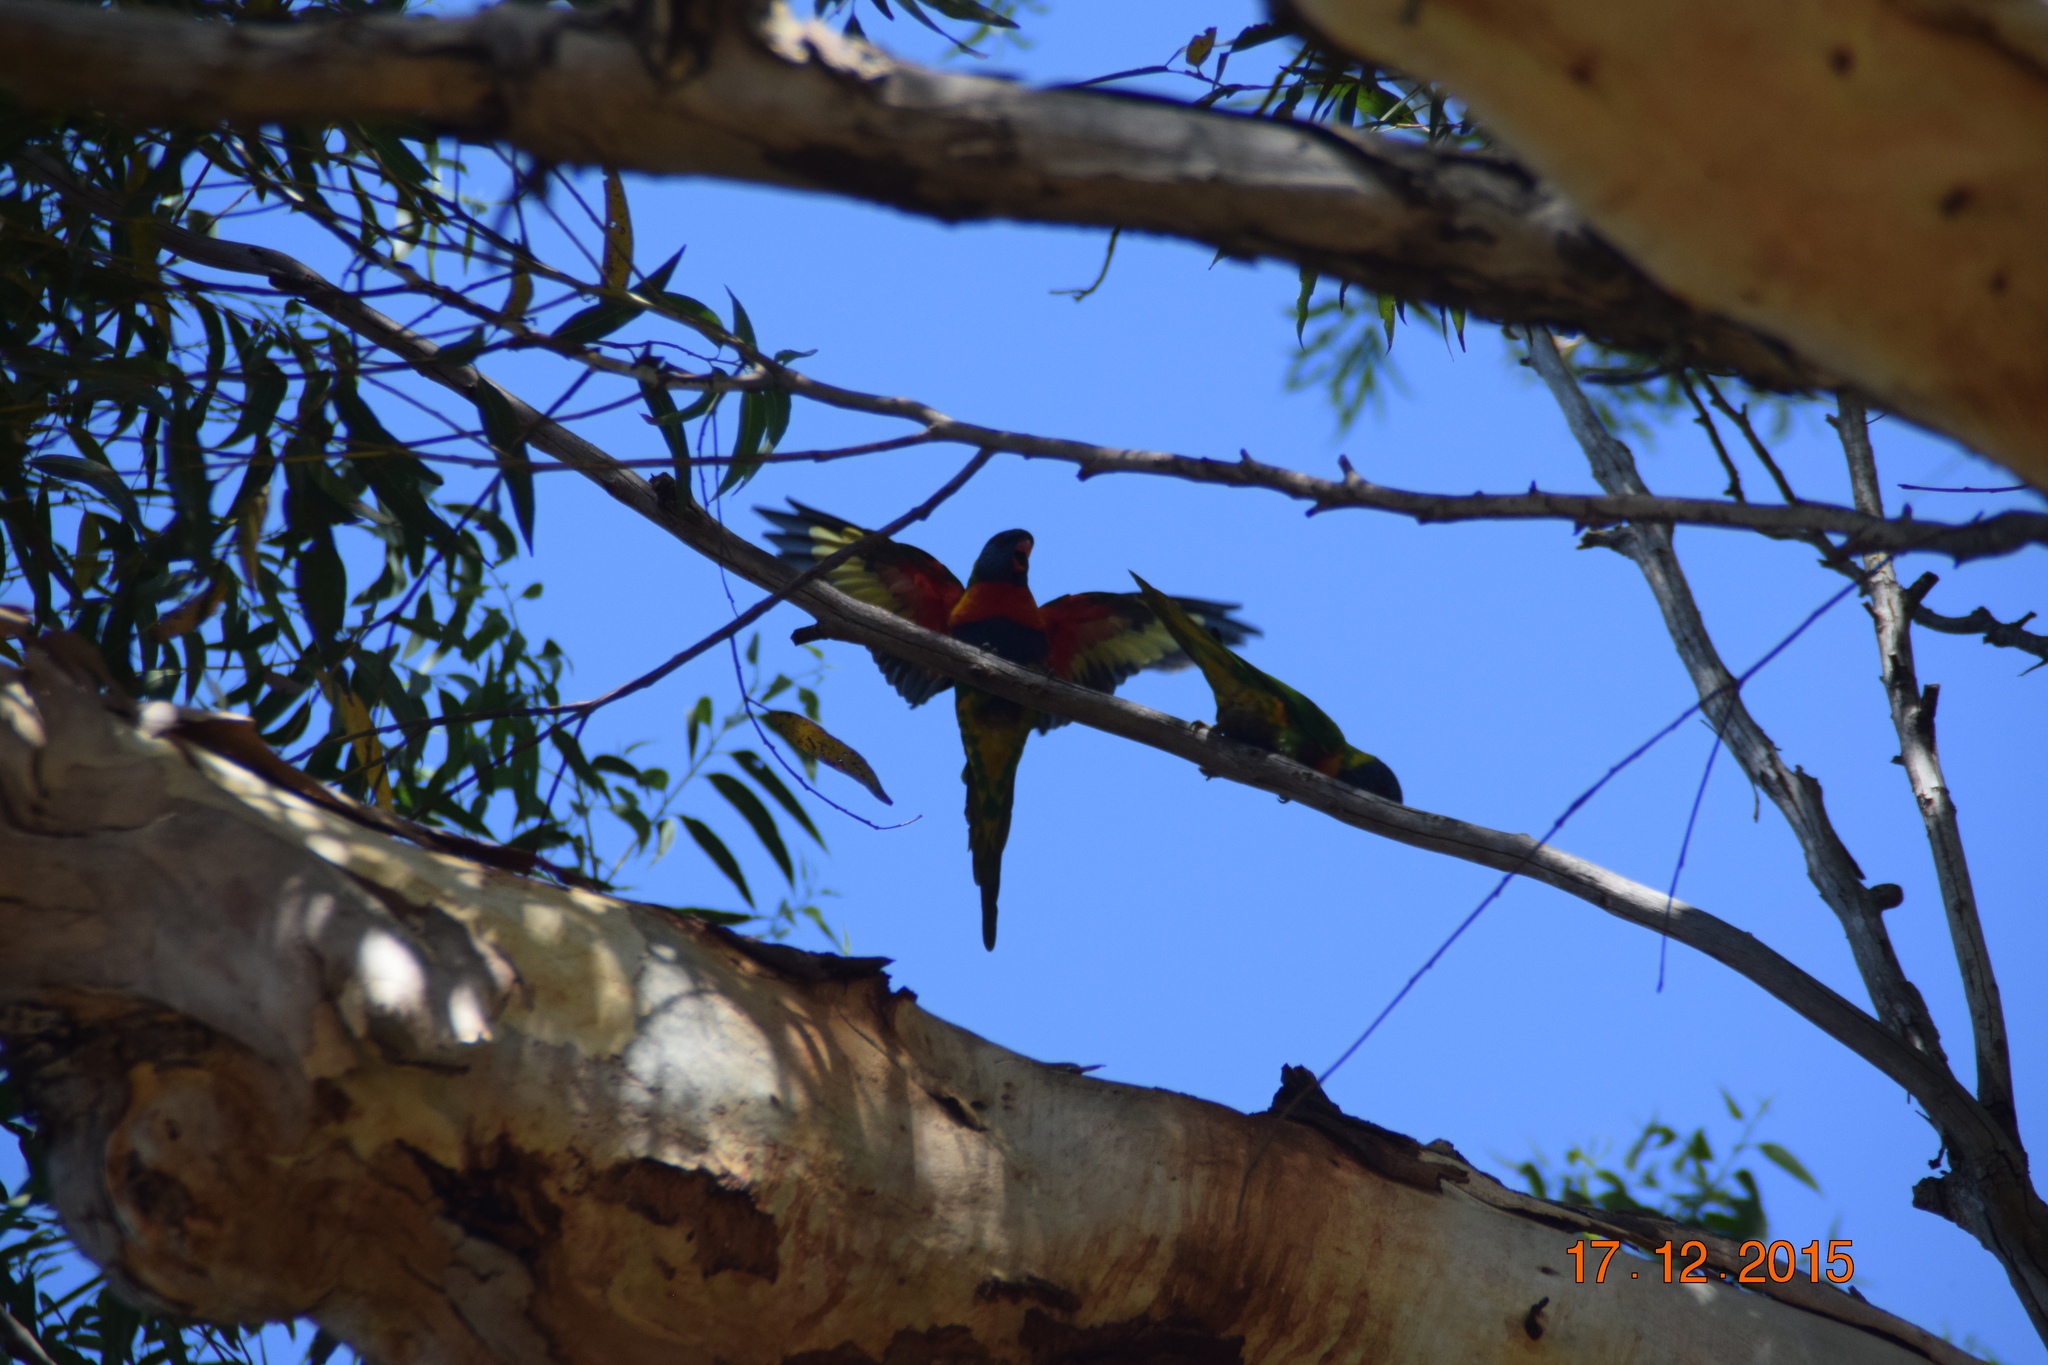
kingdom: Animalia
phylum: Chordata
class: Aves
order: Psittaciformes
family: Psittacidae
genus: Trichoglossus
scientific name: Trichoglossus haematodus
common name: Coconut lorikeet
